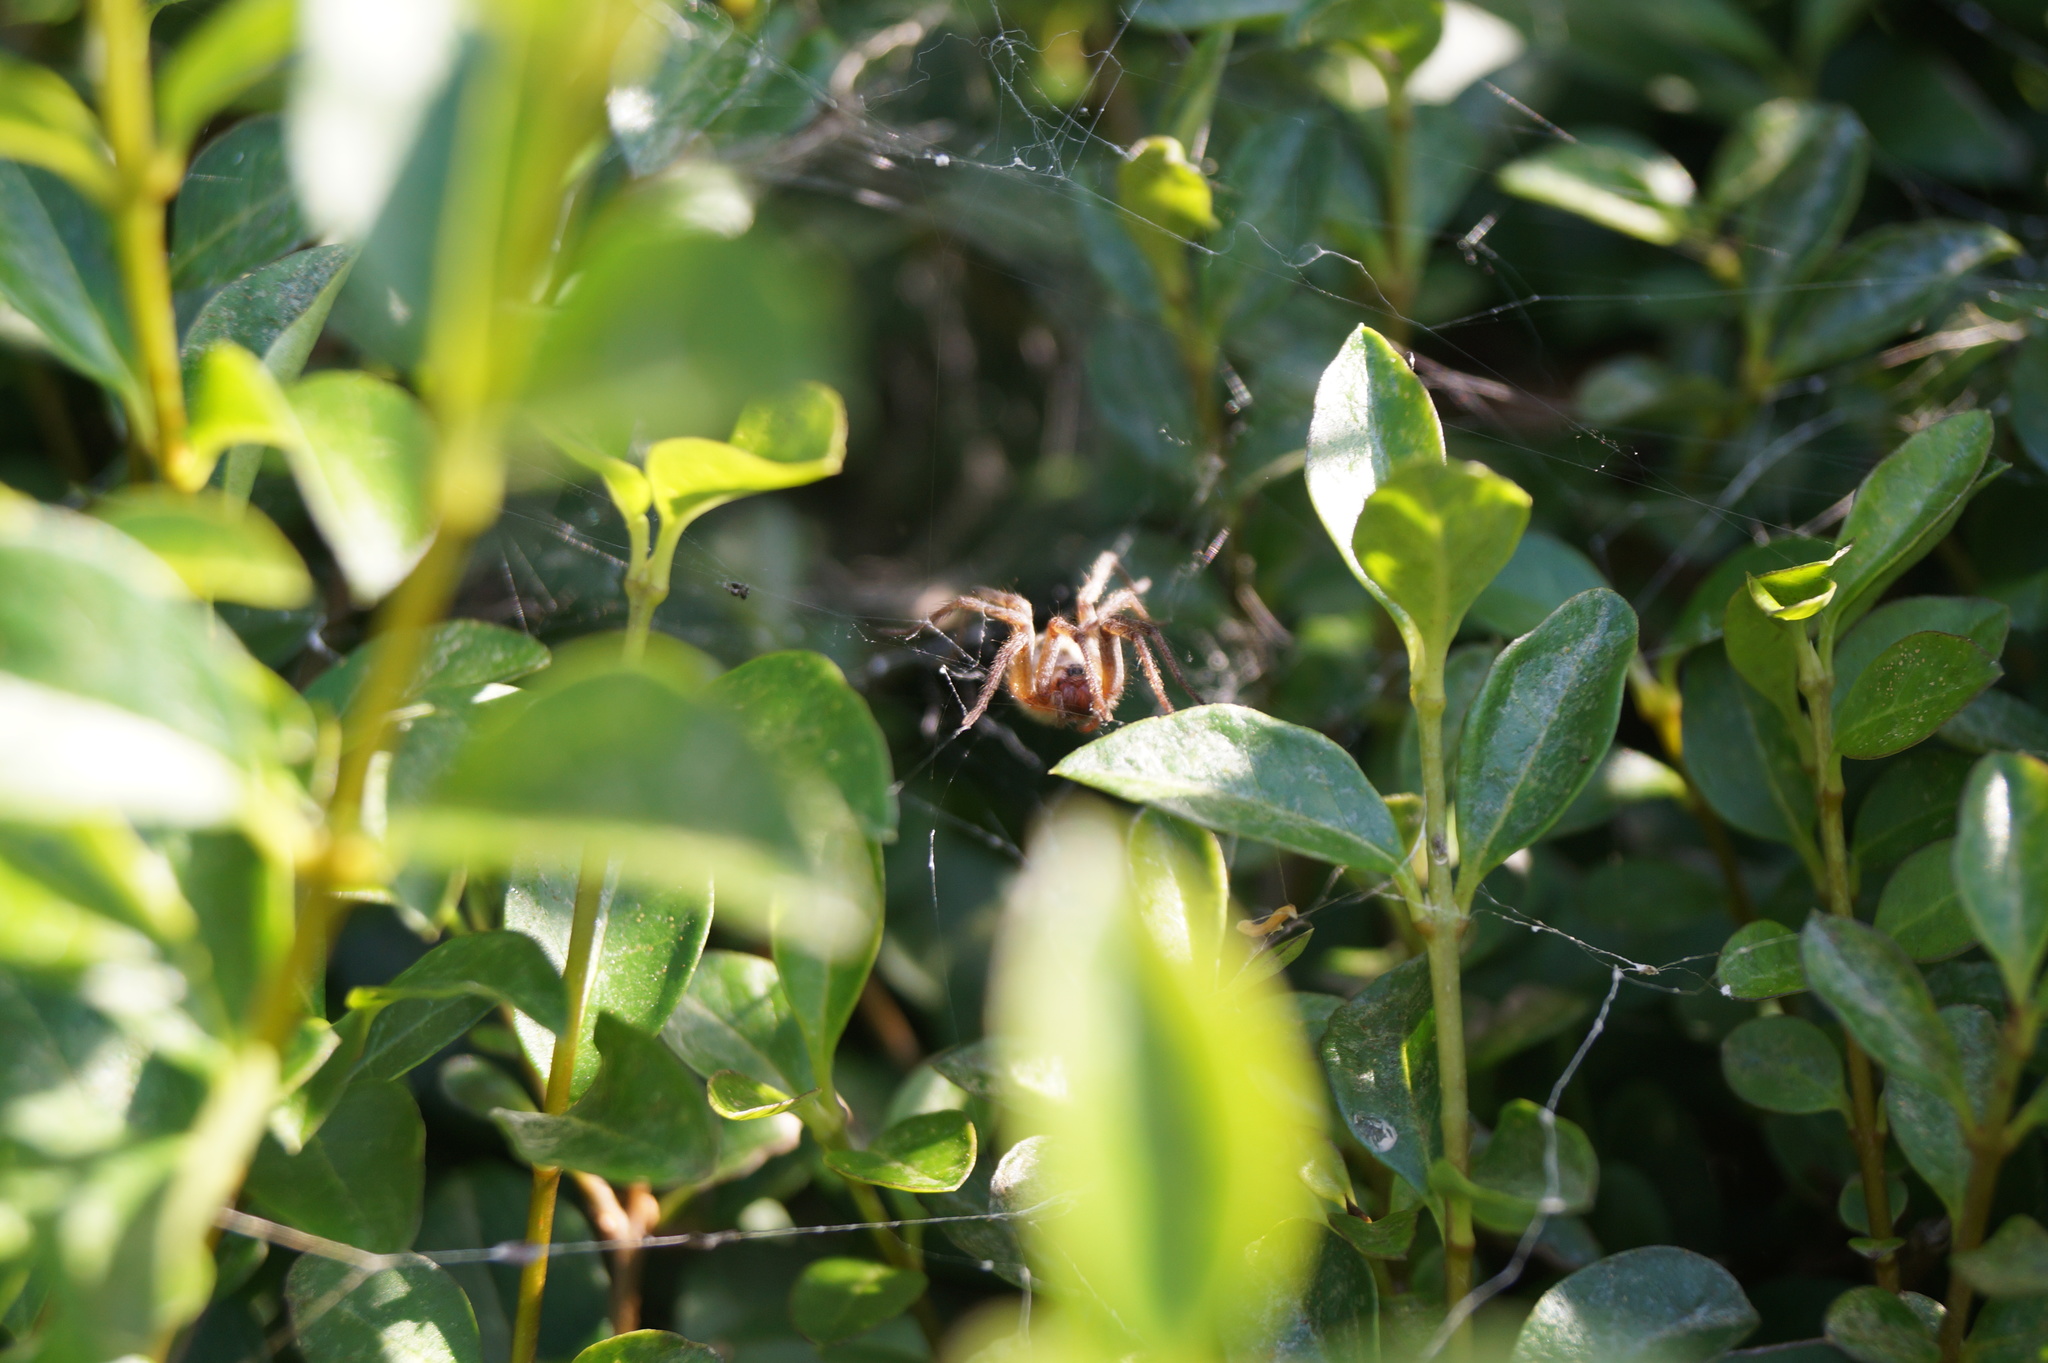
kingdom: Animalia
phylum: Arthropoda
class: Arachnida
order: Araneae
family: Agelenidae
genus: Agelena
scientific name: Agelena labyrinthica
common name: Labyrinth spider
